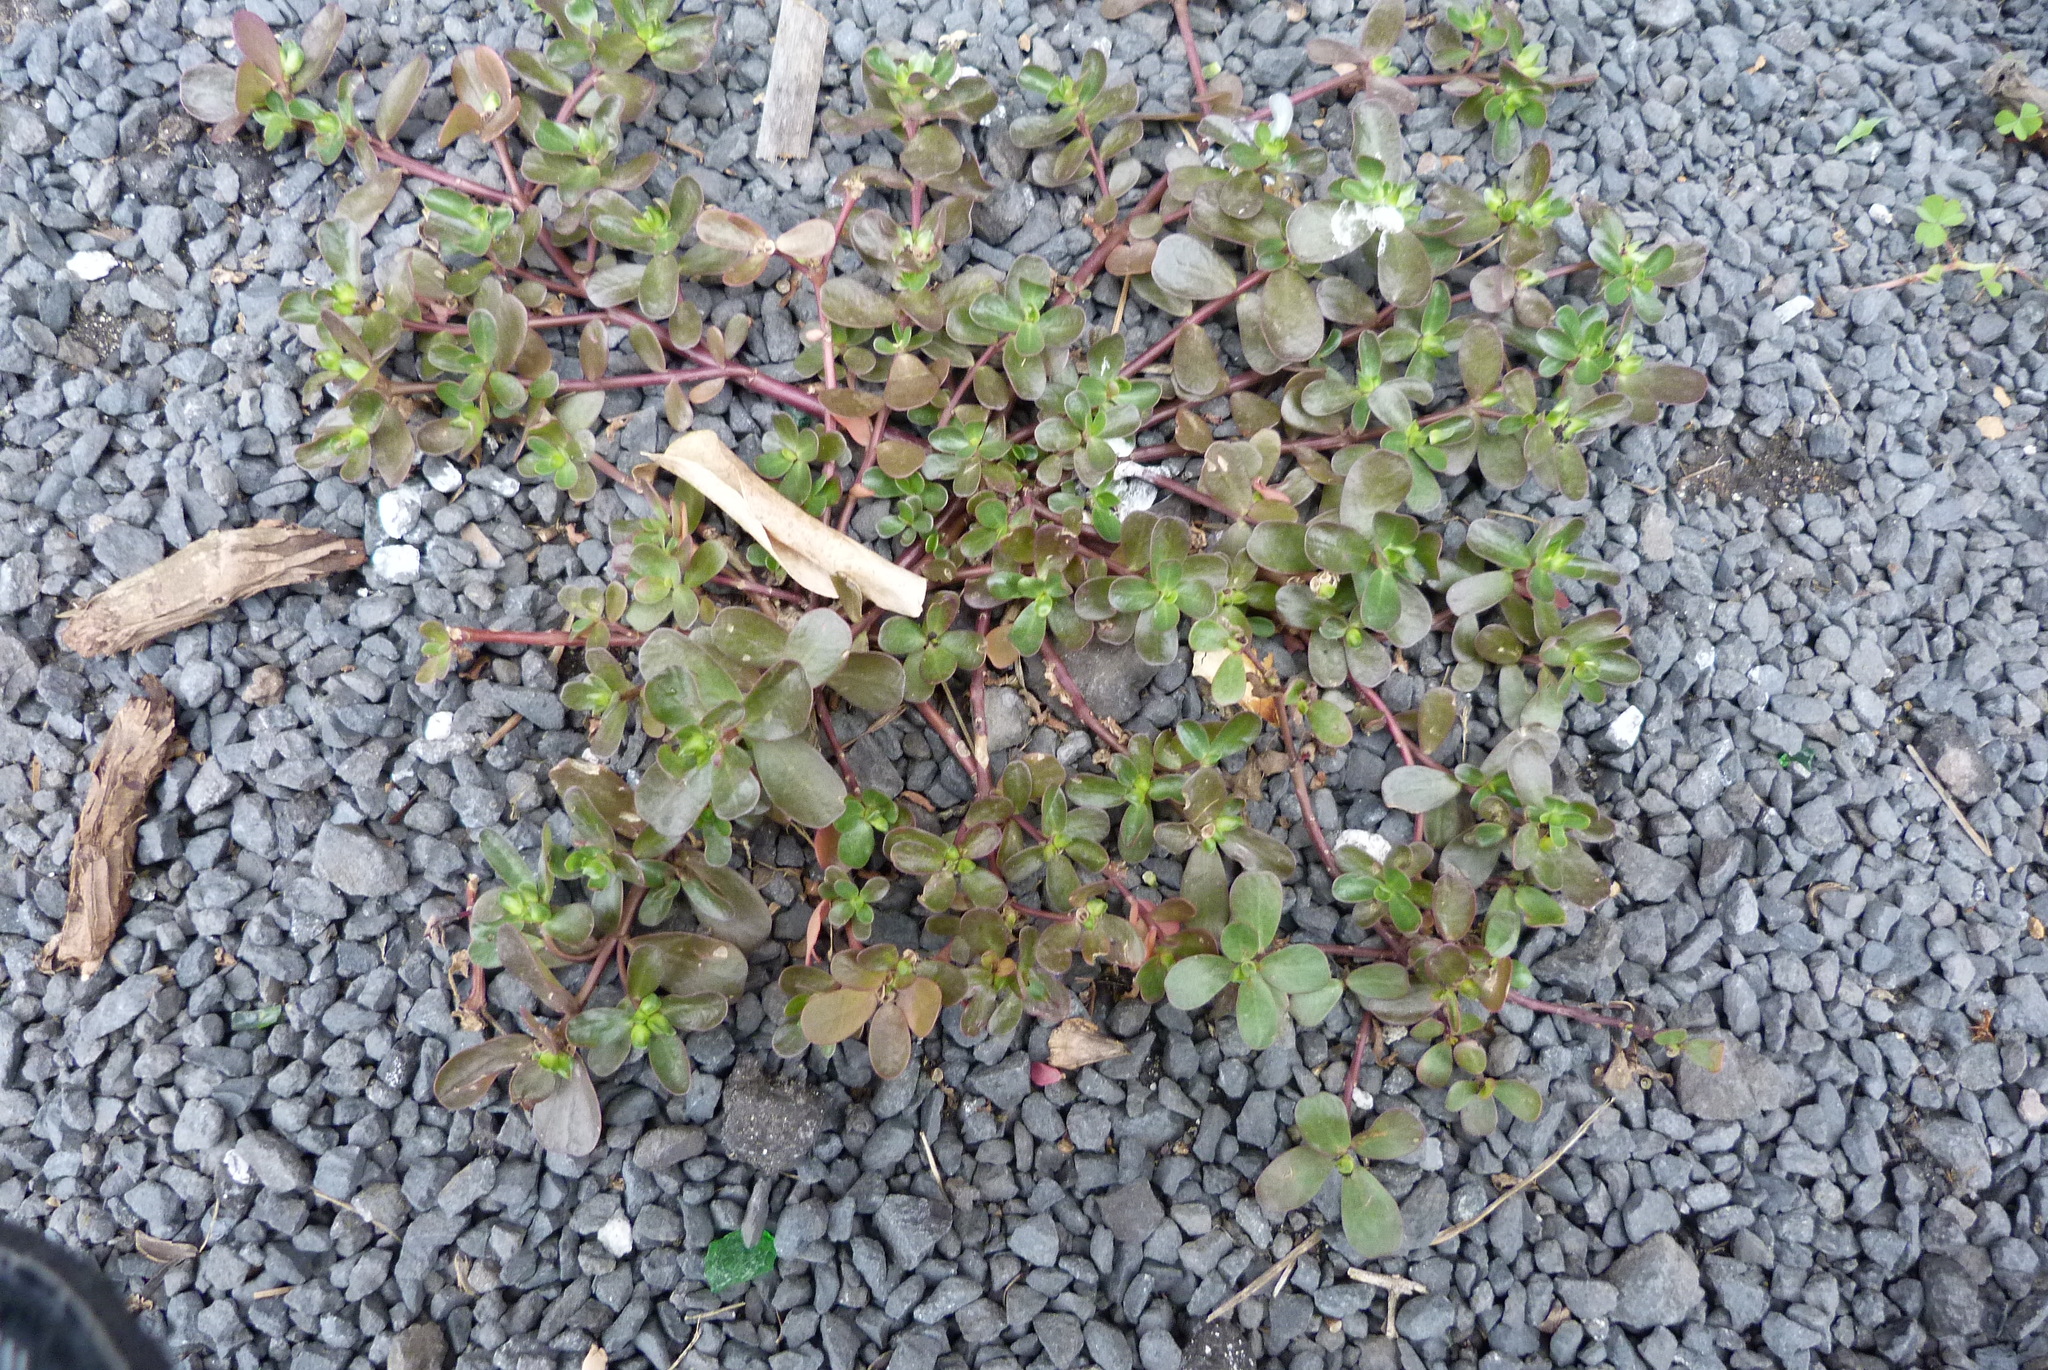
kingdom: Plantae
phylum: Tracheophyta
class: Magnoliopsida
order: Caryophyllales
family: Portulacaceae
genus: Portulaca
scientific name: Portulaca oleracea
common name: Common purslane
